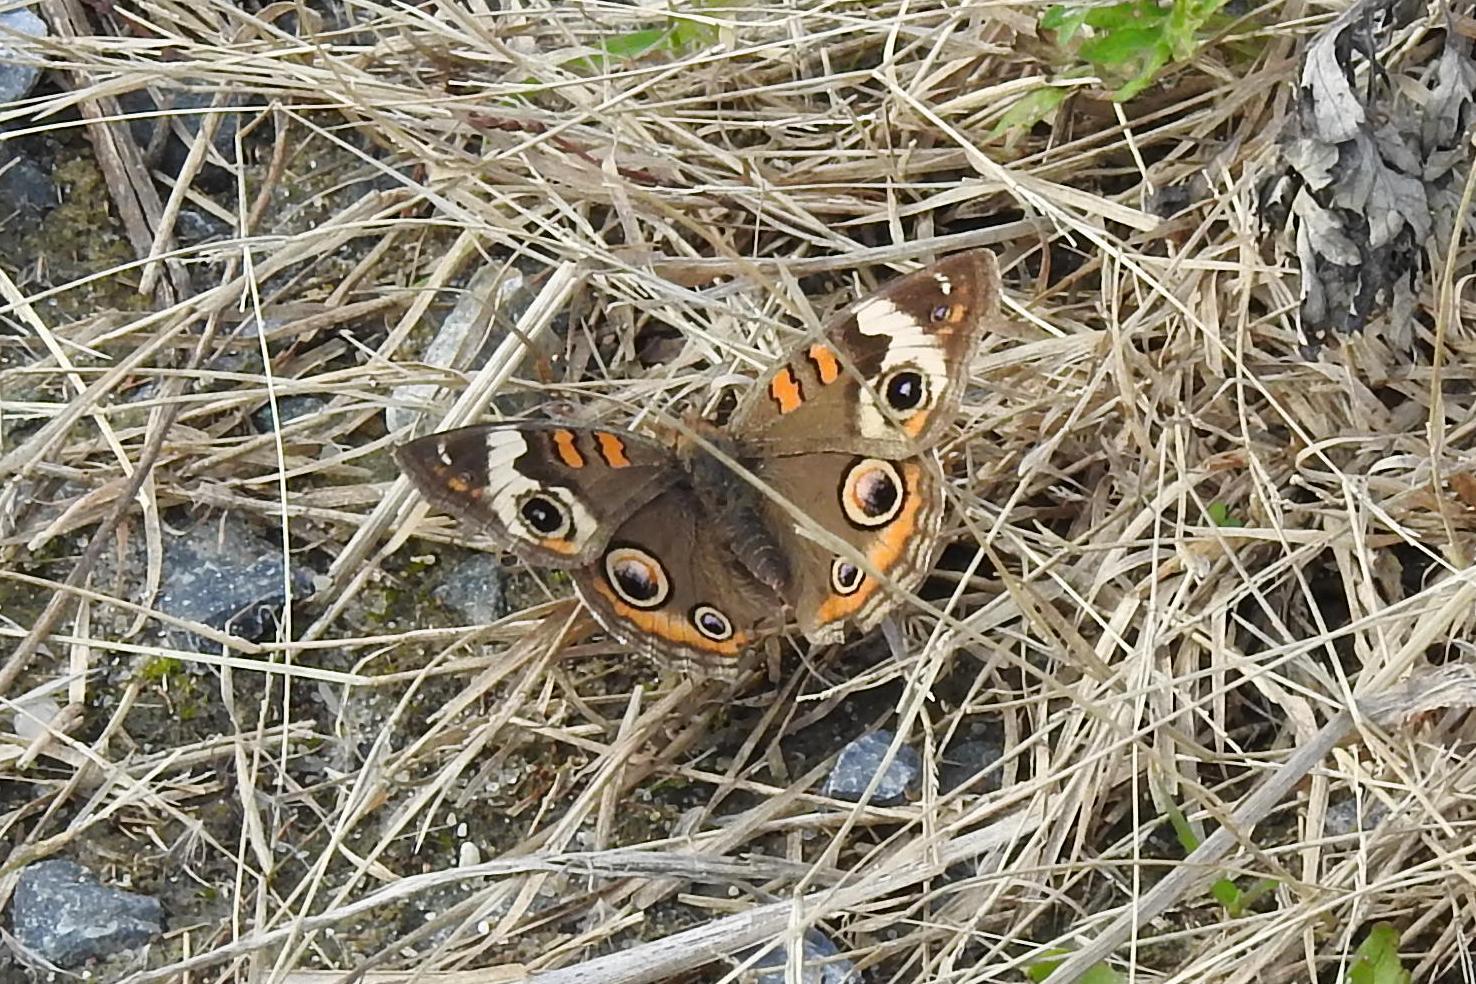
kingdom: Animalia
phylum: Arthropoda
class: Insecta
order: Lepidoptera
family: Nymphalidae
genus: Junonia
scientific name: Junonia coenia
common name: Common buckeye
